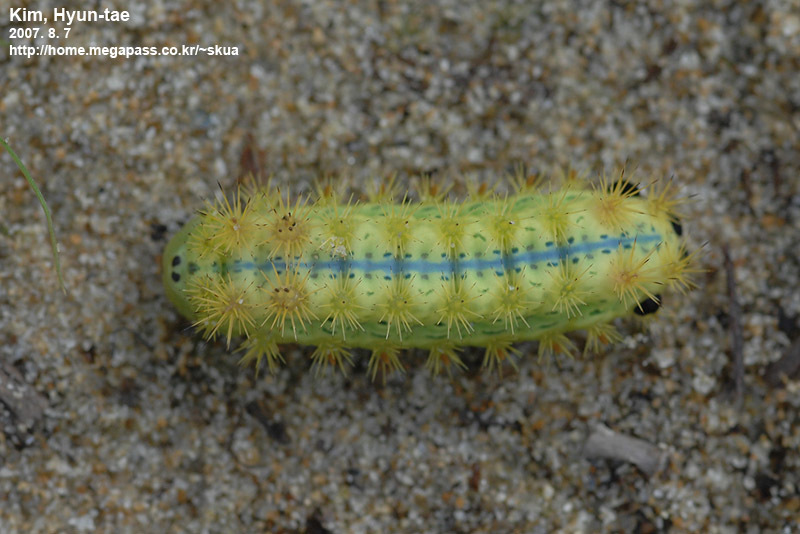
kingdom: Animalia
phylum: Arthropoda
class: Insecta
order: Lepidoptera
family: Limacodidae
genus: Parasa
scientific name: Parasa consocia
